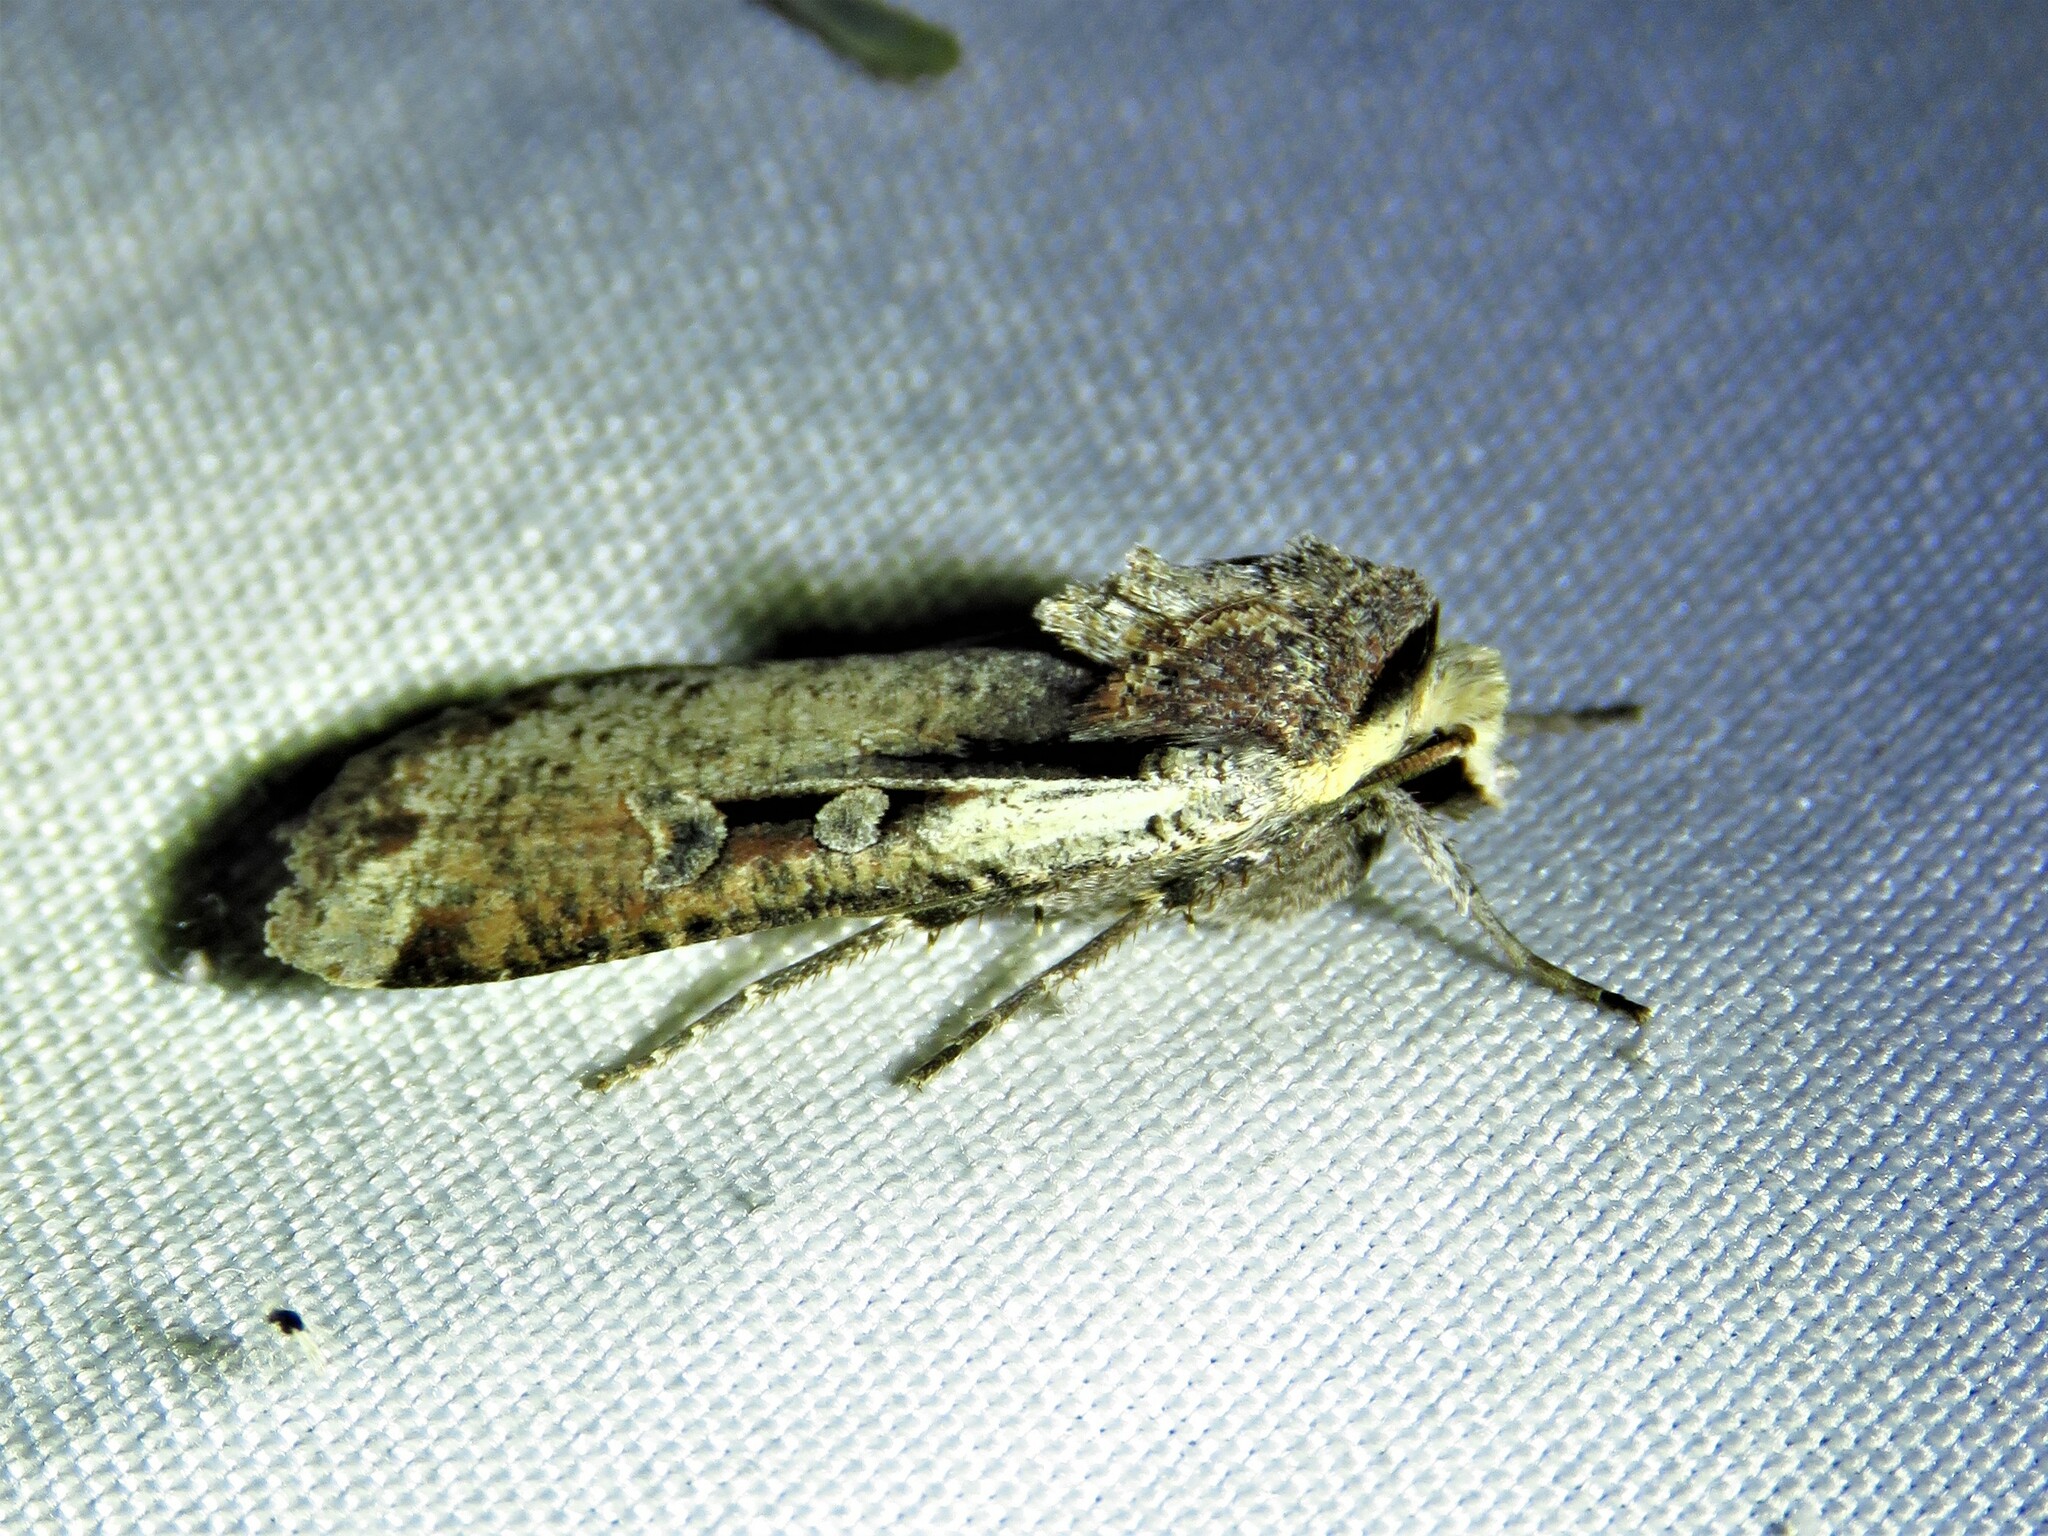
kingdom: Animalia
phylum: Arthropoda
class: Insecta
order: Lepidoptera
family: Noctuidae
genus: Hemieuxoa
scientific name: Hemieuxoa rudens
